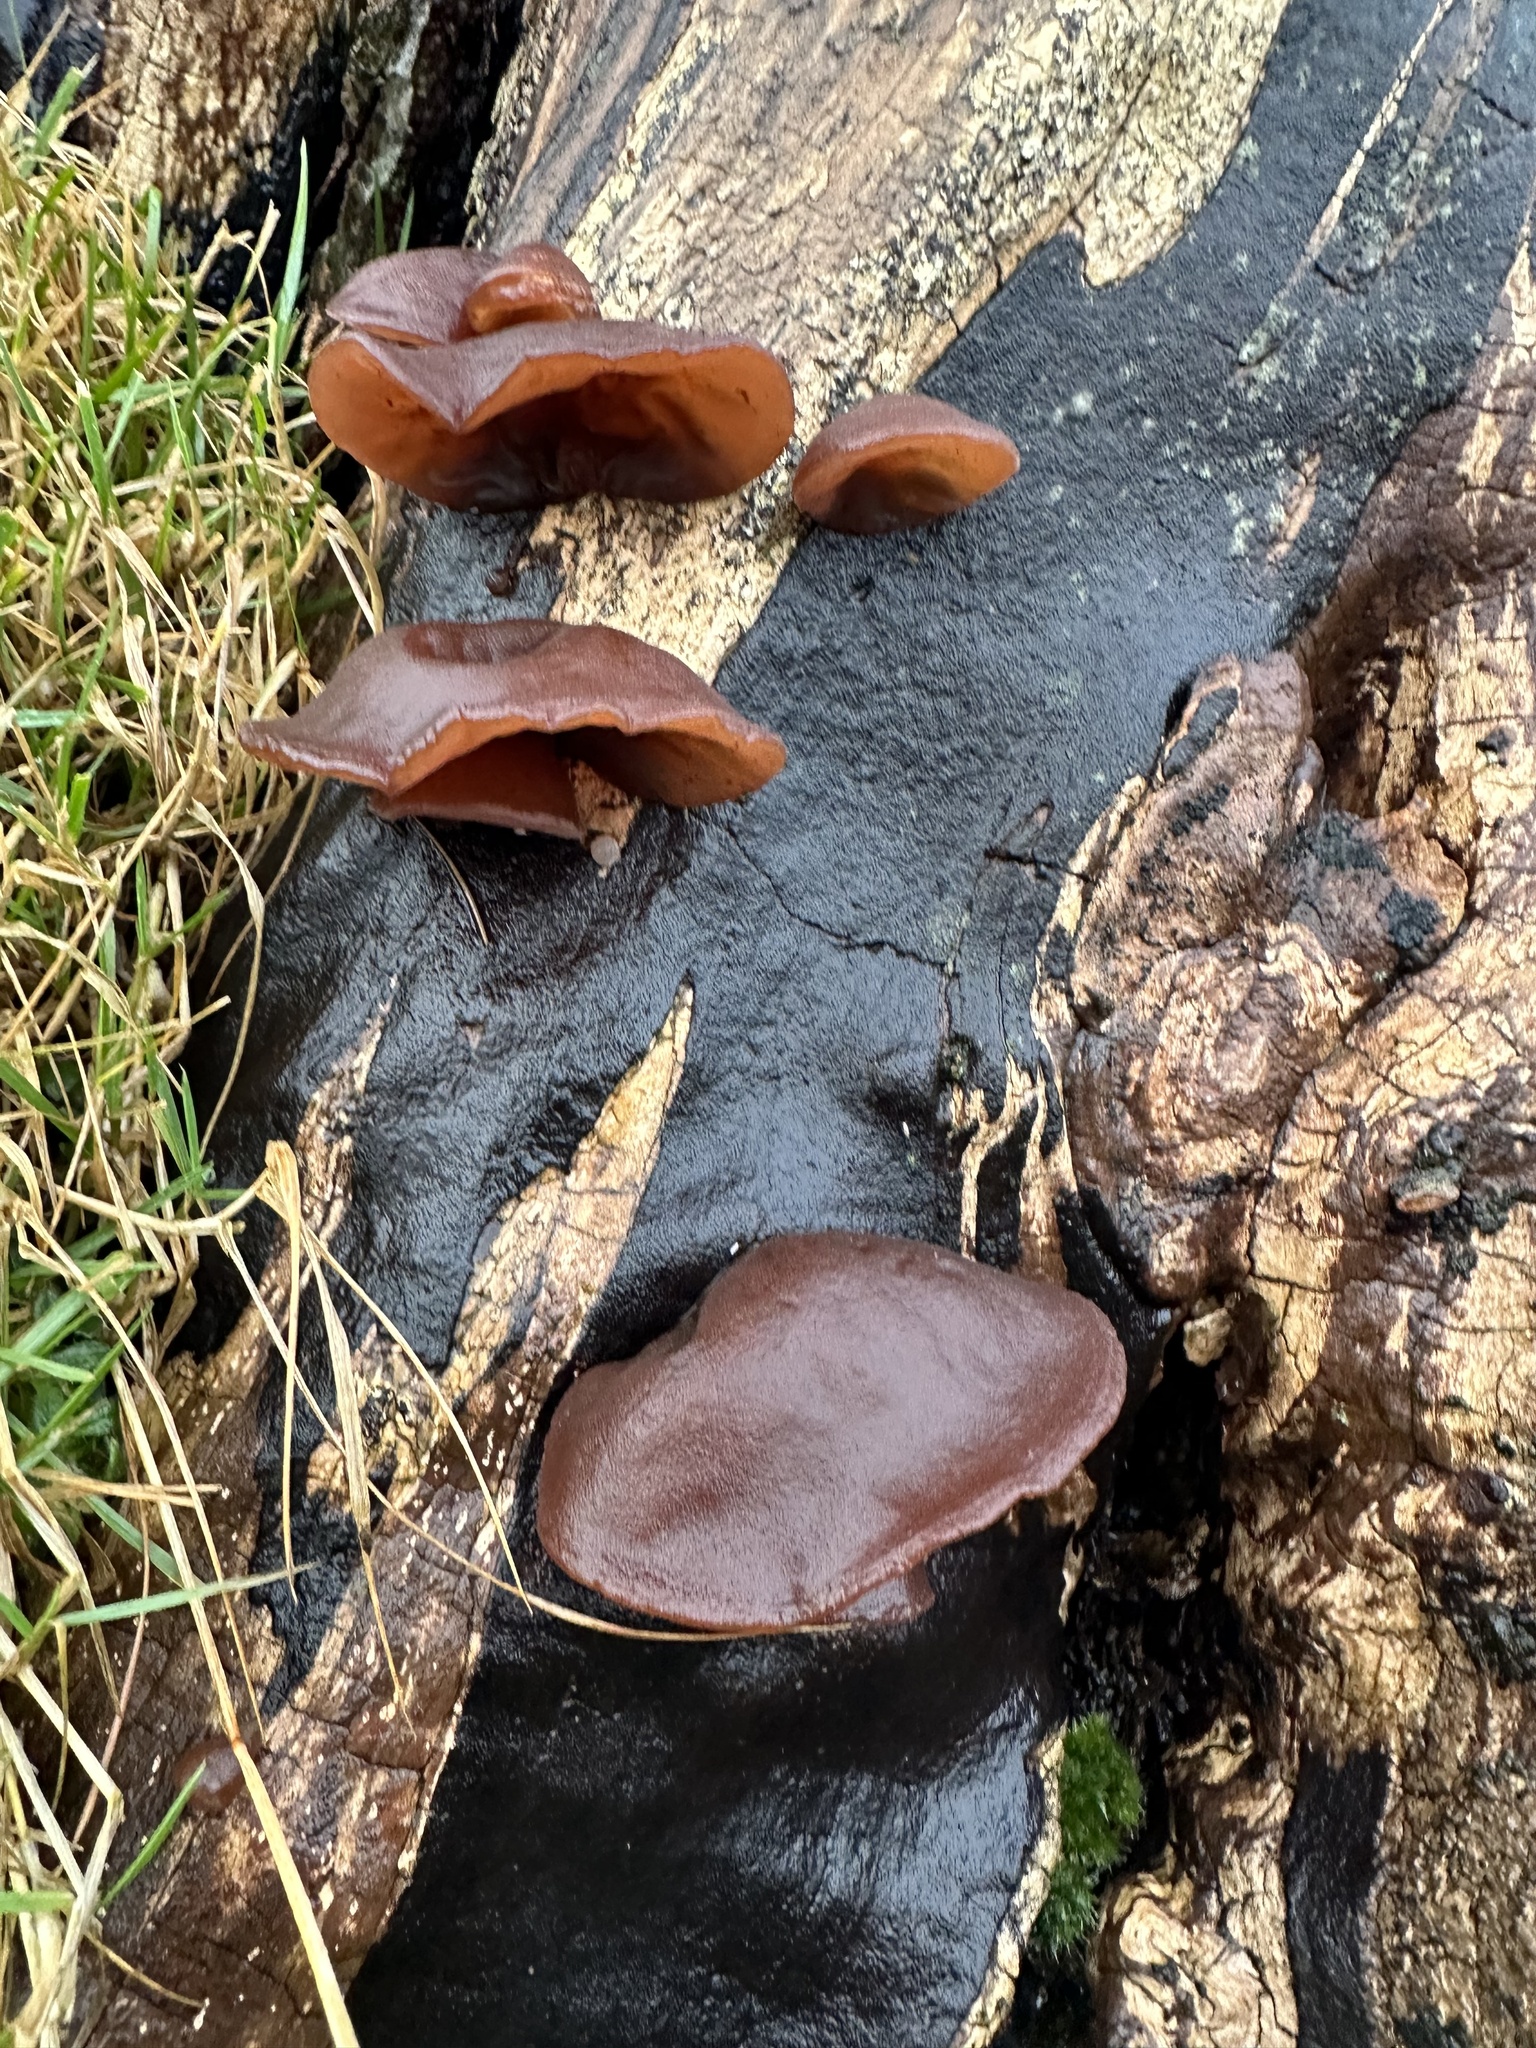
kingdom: Fungi
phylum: Basidiomycota
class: Agaricomycetes
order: Auriculariales
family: Auriculariaceae
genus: Auricularia
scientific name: Auricularia auricula-judae
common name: Jelly ear
